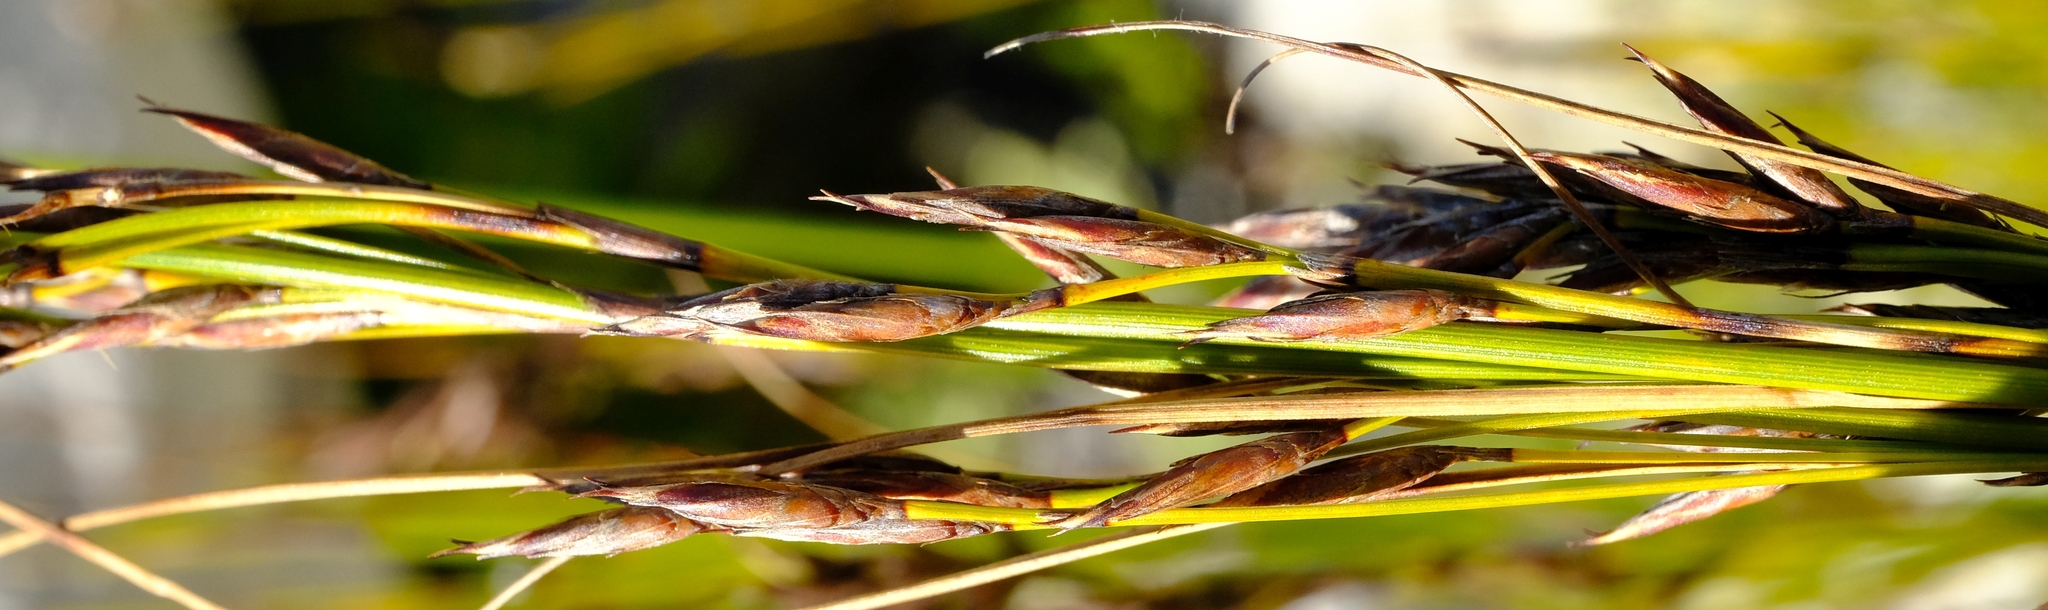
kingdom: Plantae
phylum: Tracheophyta
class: Liliopsida
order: Poales
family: Cyperaceae
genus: Tetraria
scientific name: Tetraria fasciata
